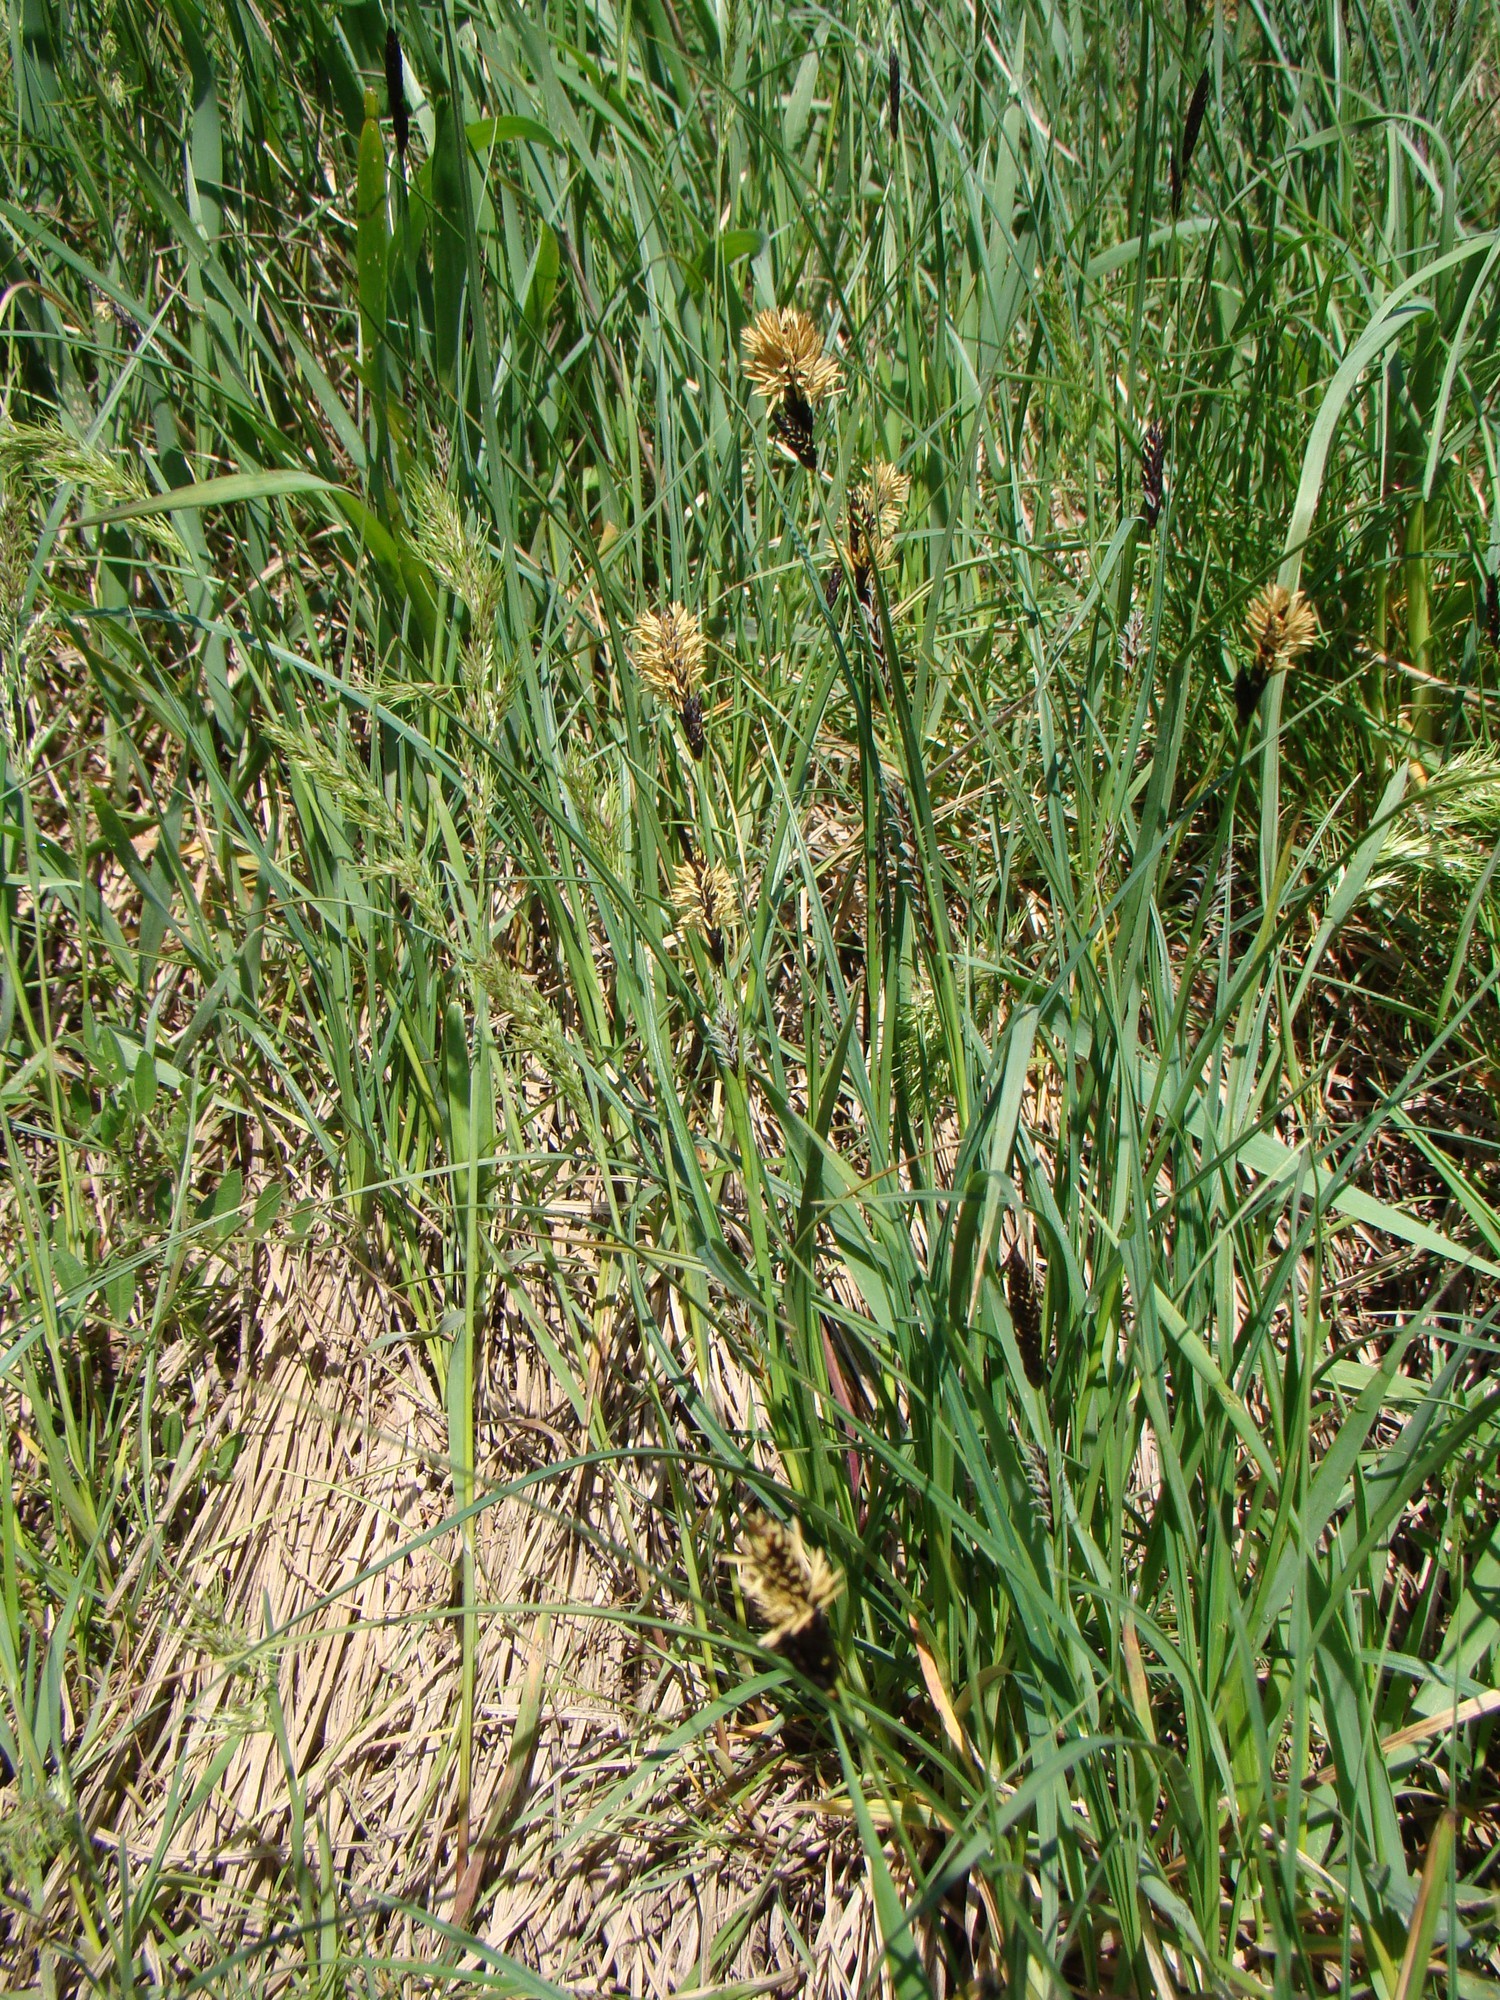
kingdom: Plantae
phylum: Tracheophyta
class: Liliopsida
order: Poales
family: Cyperaceae
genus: Carex
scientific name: Carex melanostachya
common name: Black-spiked sedge
